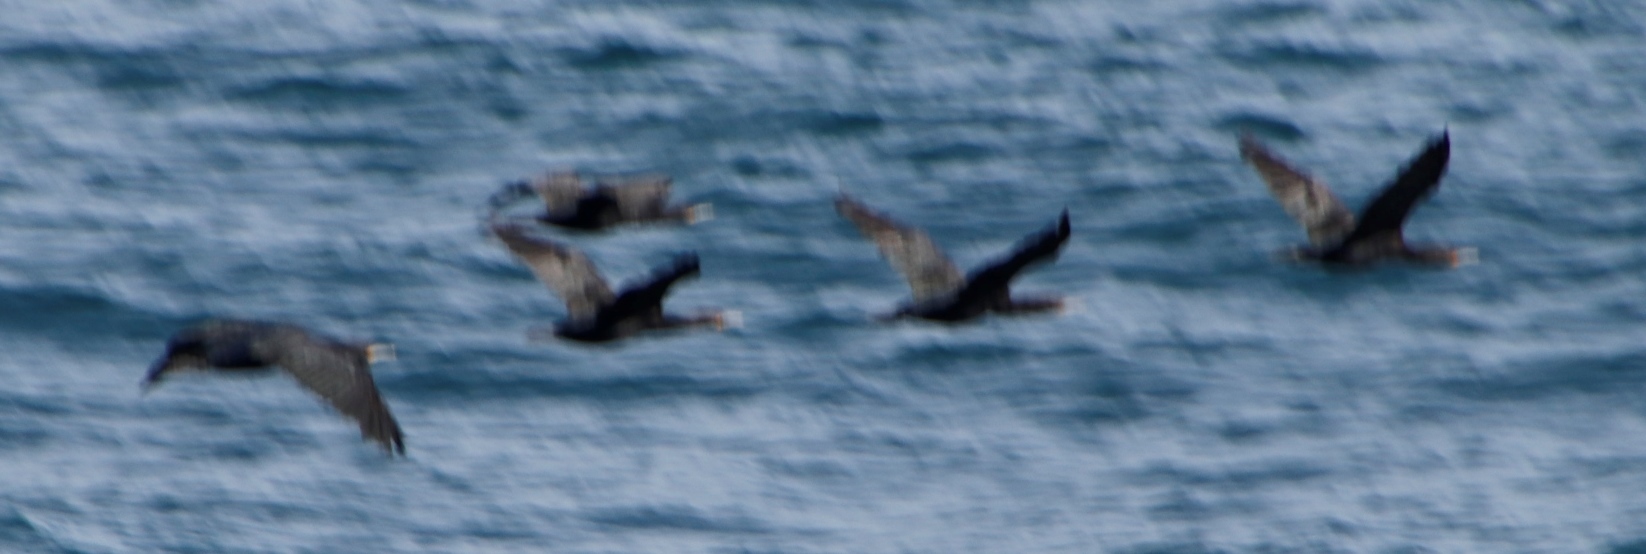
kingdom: Animalia
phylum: Chordata
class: Aves
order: Suliformes
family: Phalacrocoracidae
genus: Phalacrocorax
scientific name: Phalacrocorax capensis
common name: Cape cormorant
